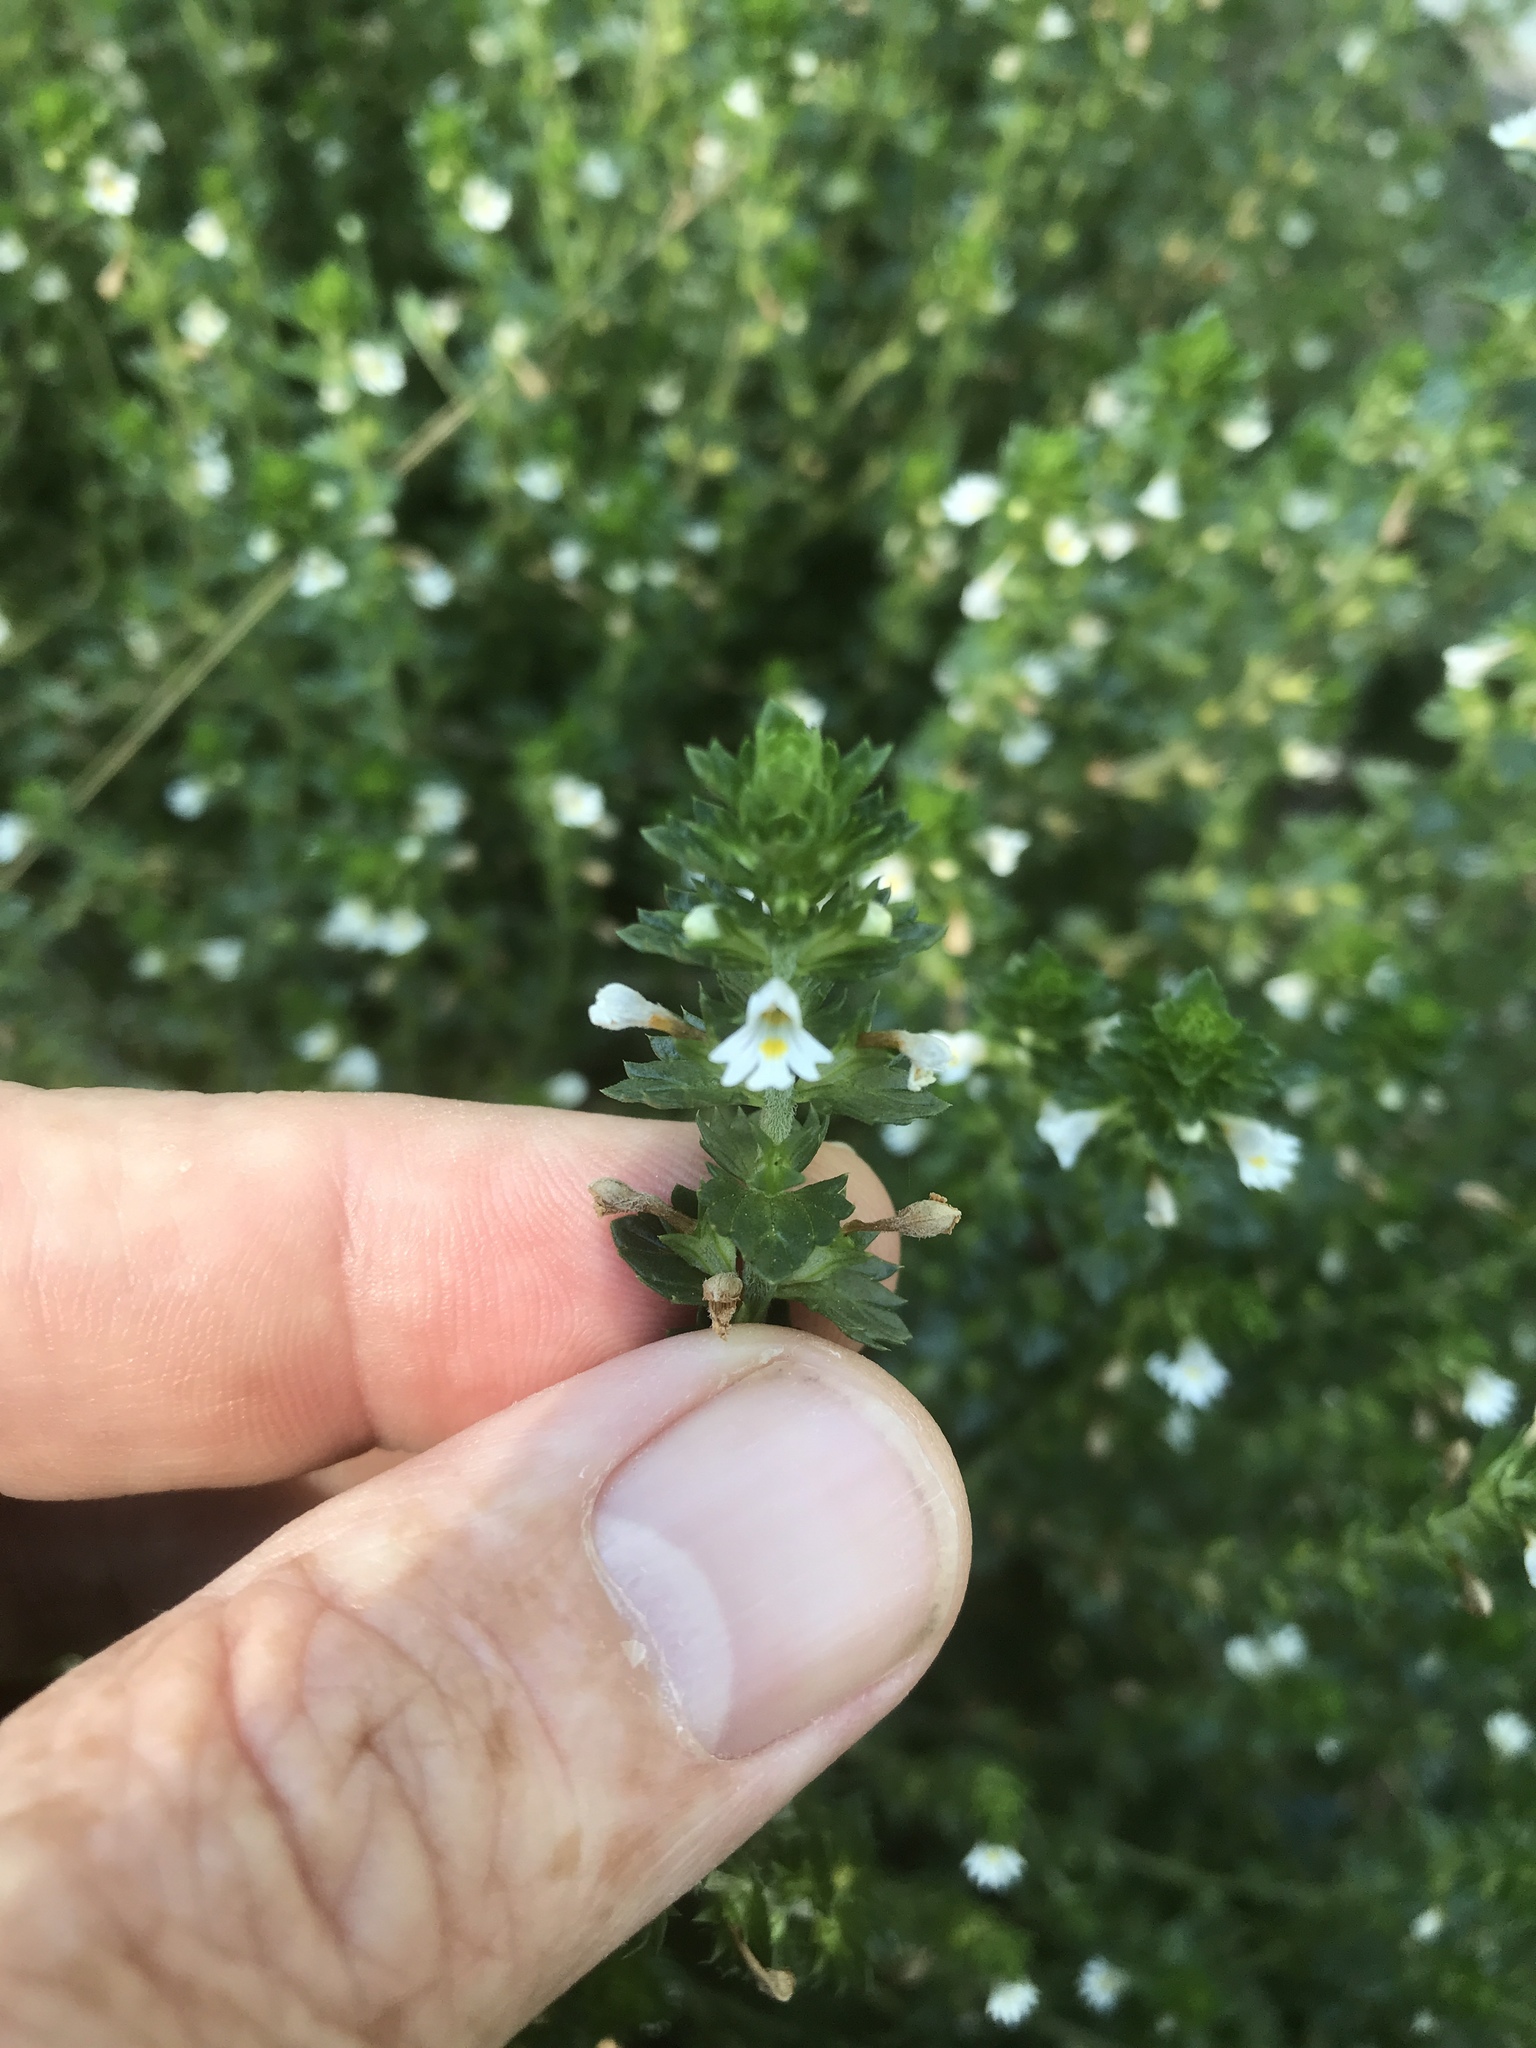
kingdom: Plantae
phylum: Tracheophyta
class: Magnoliopsida
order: Lamiales
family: Orobanchaceae
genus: Euphrasia
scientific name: Euphrasia nemorosa
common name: Common eyebright
